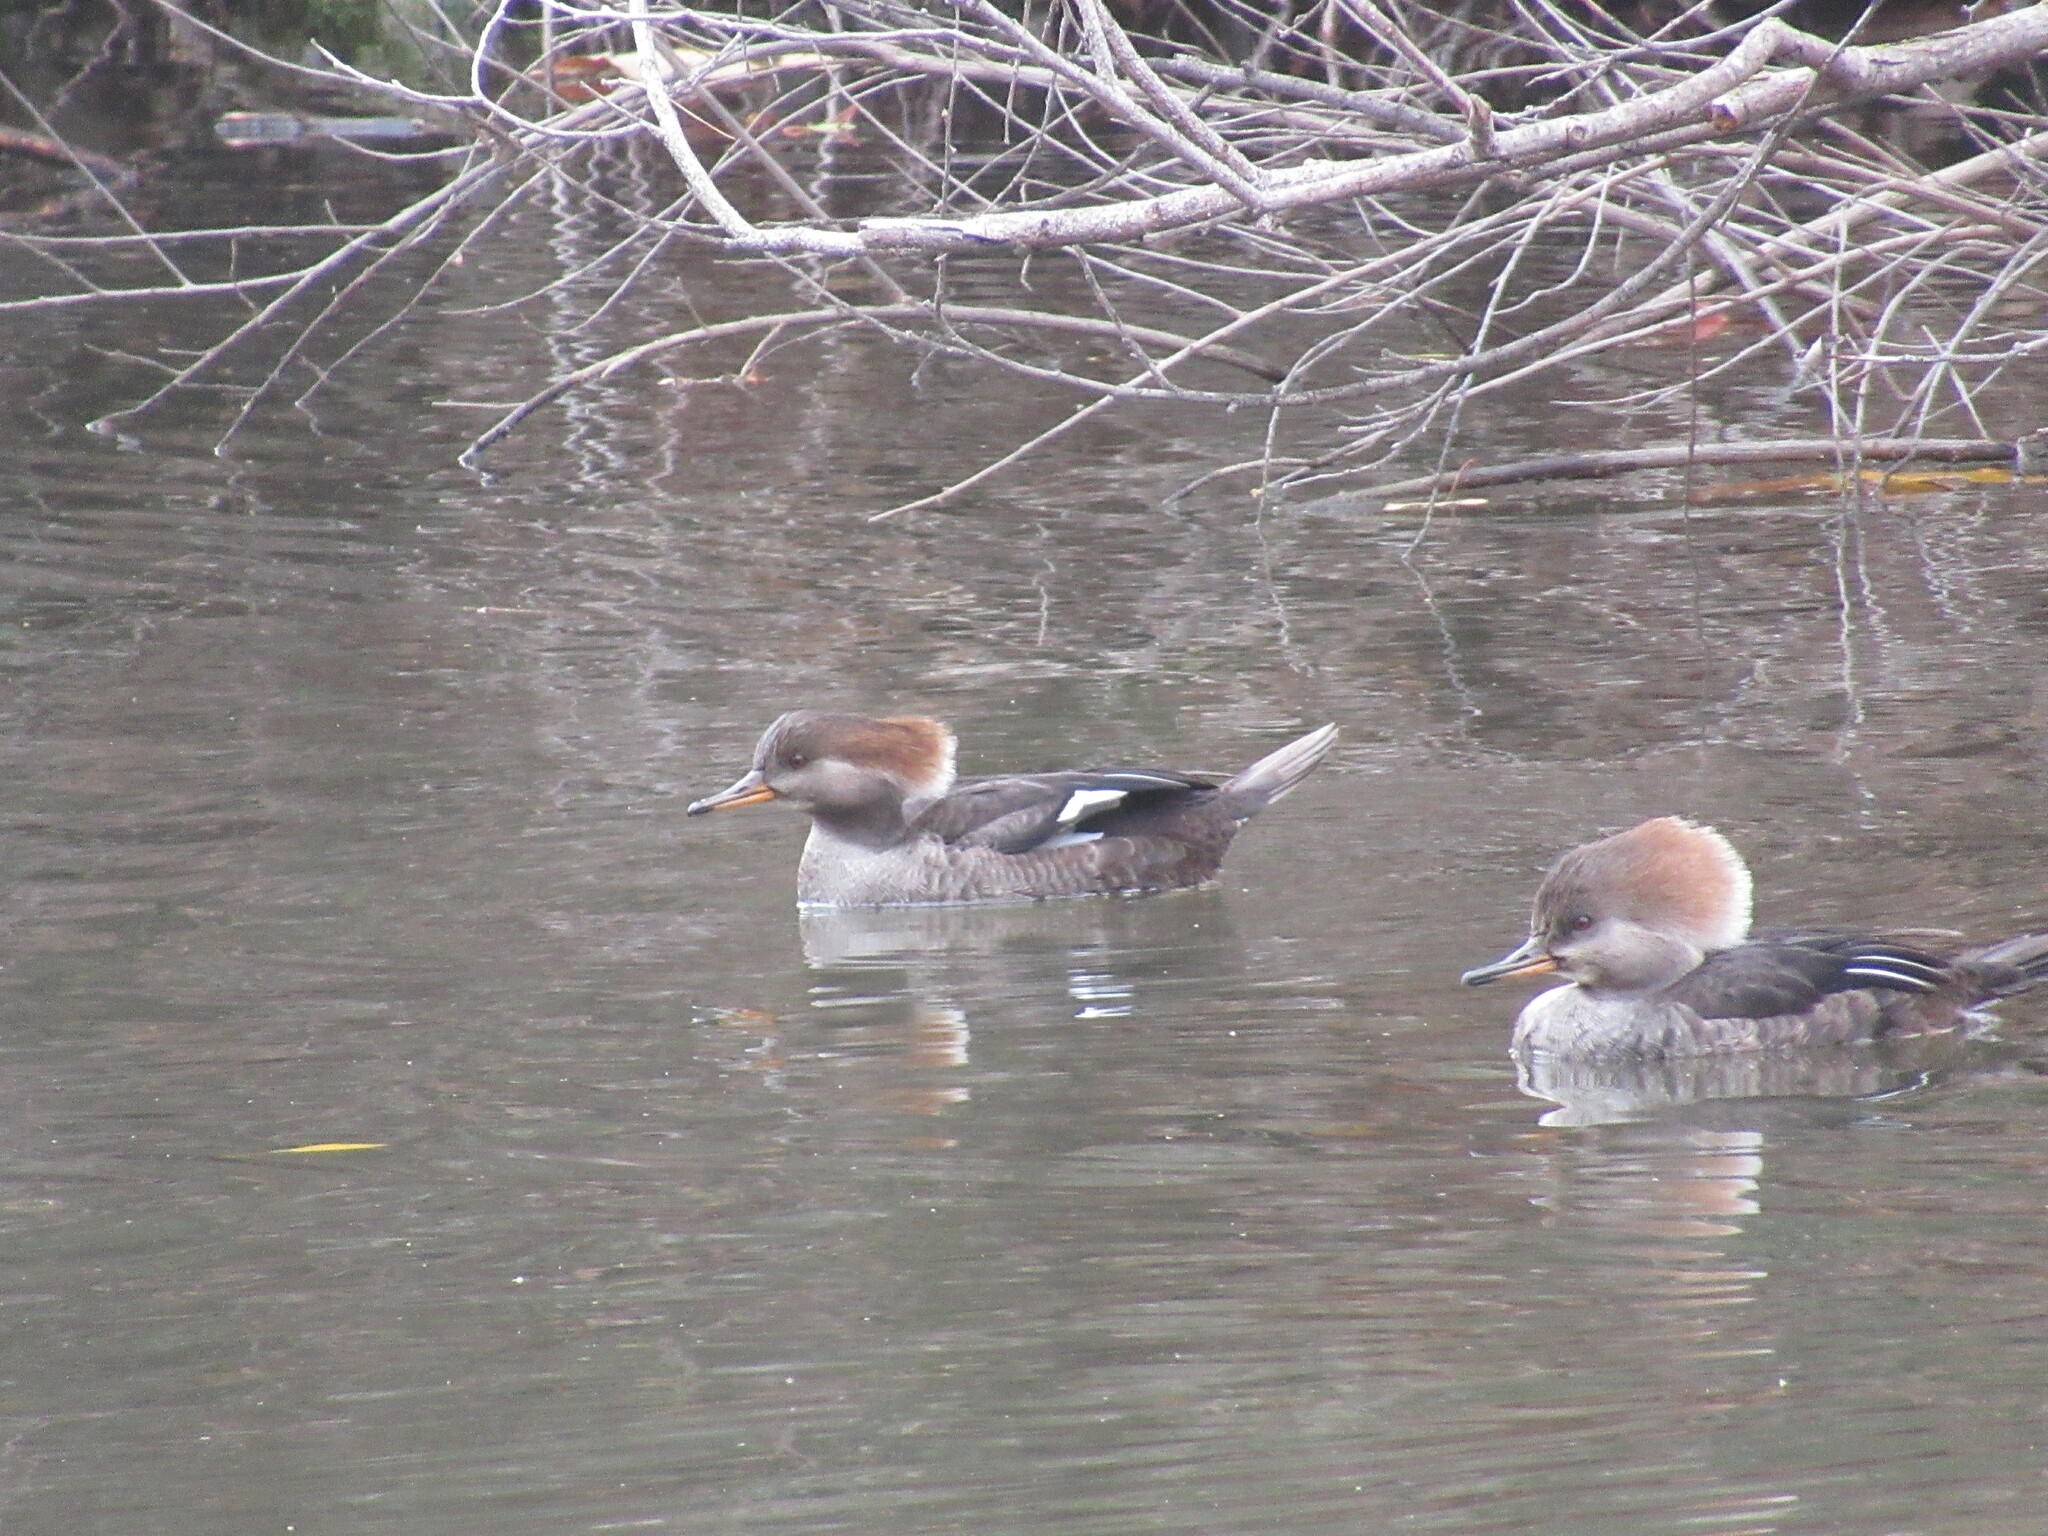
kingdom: Animalia
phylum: Chordata
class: Aves
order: Anseriformes
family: Anatidae
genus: Lophodytes
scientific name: Lophodytes cucullatus
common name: Hooded merganser
